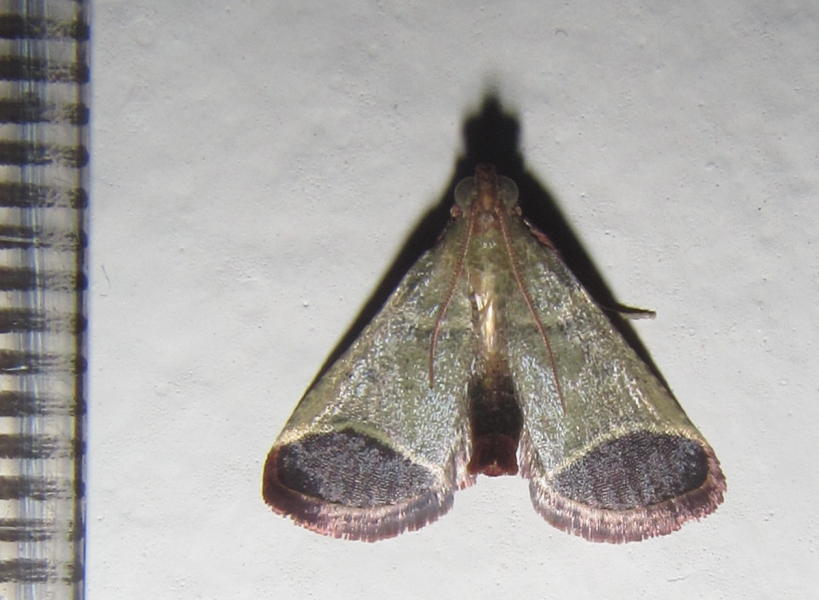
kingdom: Animalia
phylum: Arthropoda
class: Insecta
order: Lepidoptera
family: Pyralidae
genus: Tegulifera
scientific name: Tegulifera Sphalerosticha oblunata
